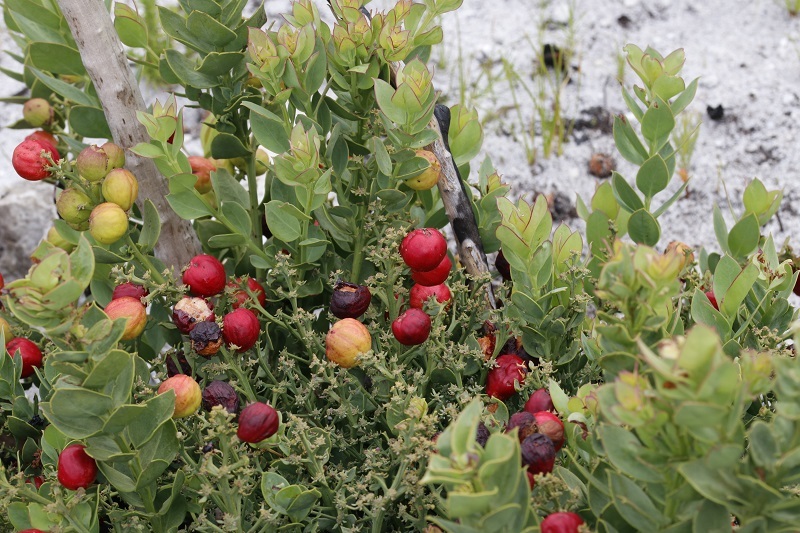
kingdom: Plantae
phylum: Tracheophyta
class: Magnoliopsida
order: Santalales
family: Santalaceae
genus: Osyris
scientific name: Osyris speciosa
